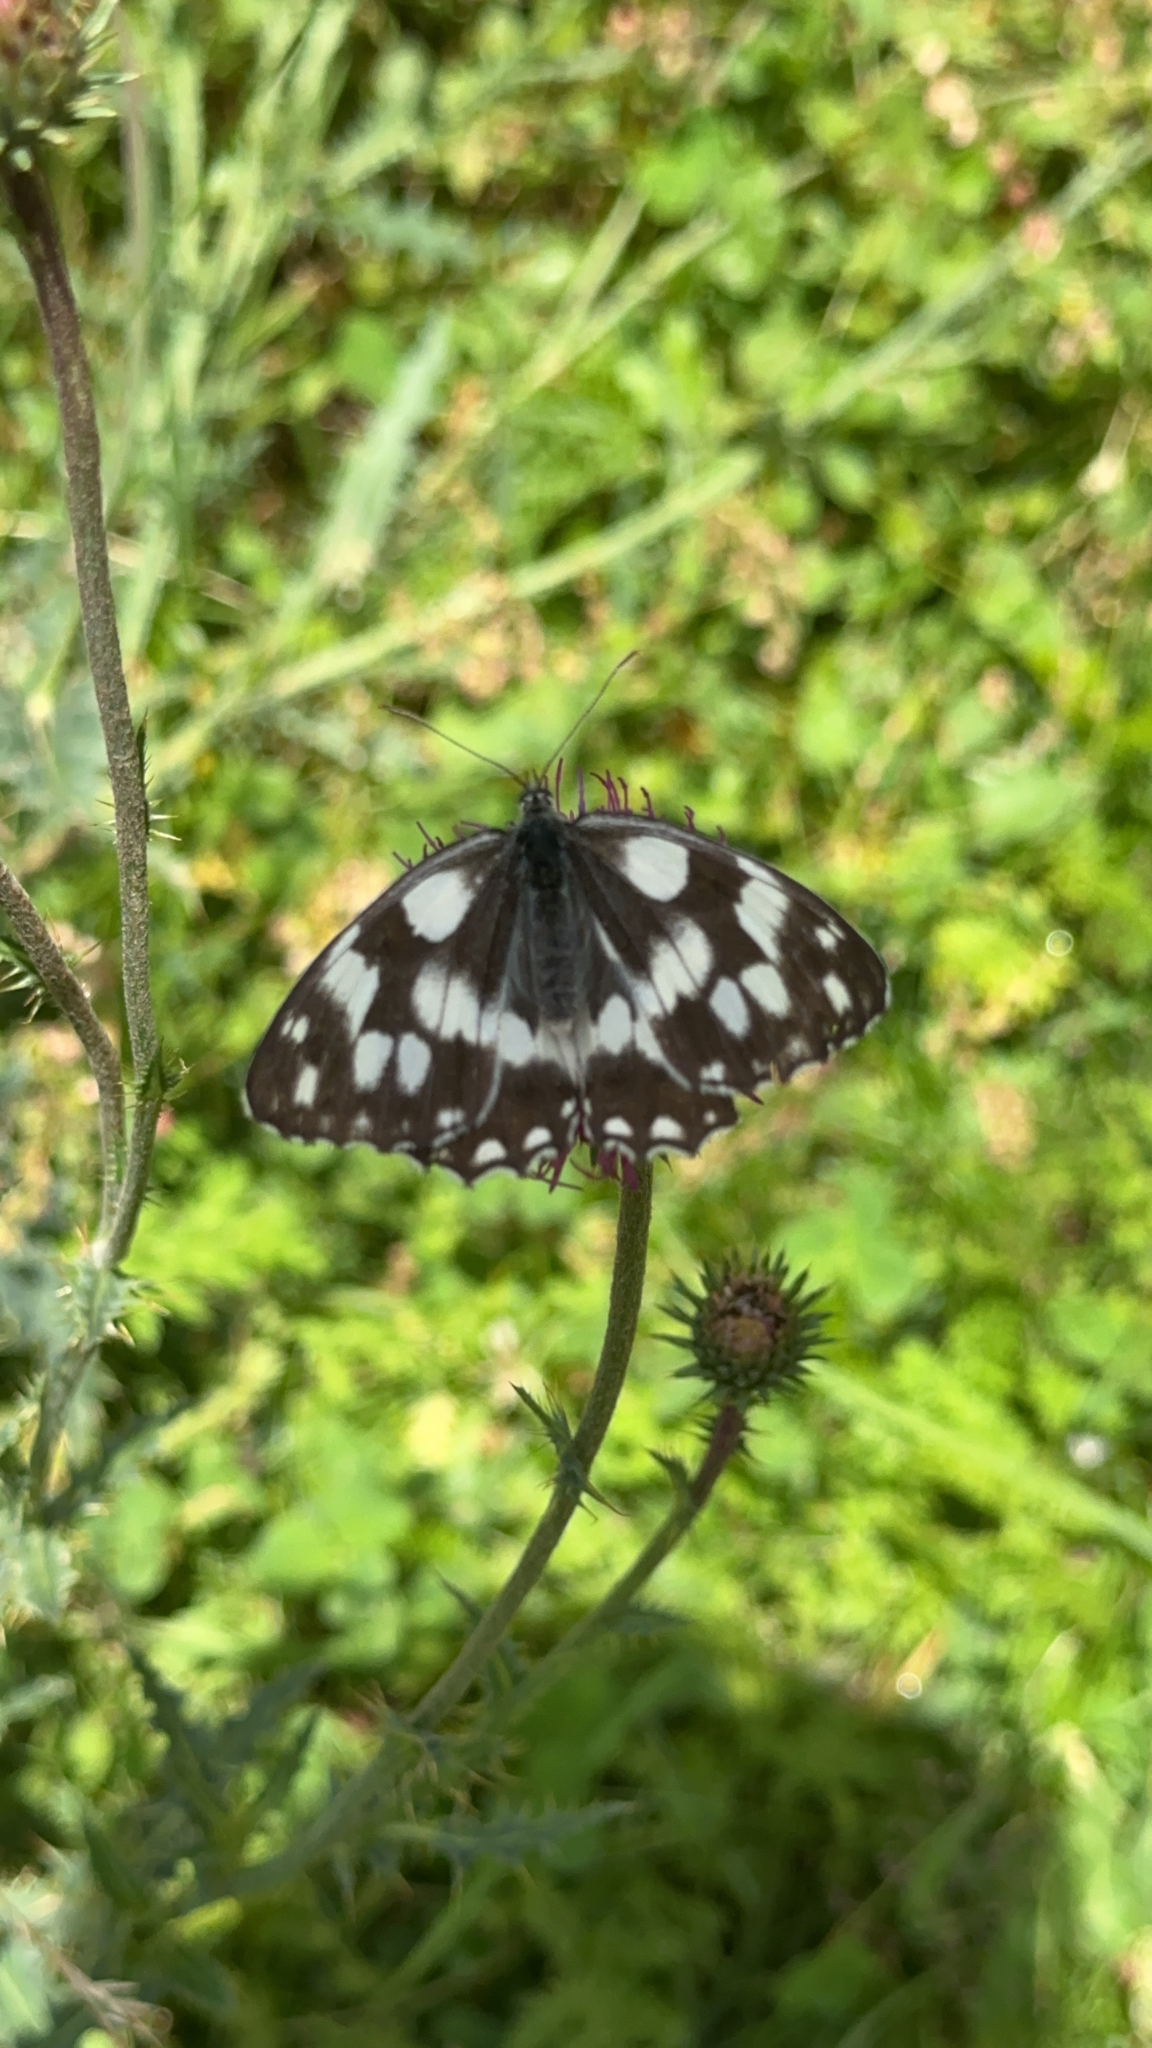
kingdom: Animalia
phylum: Arthropoda
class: Insecta
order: Lepidoptera
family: Nymphalidae
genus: Melanargia
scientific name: Melanargia galathea
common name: Marbled white
